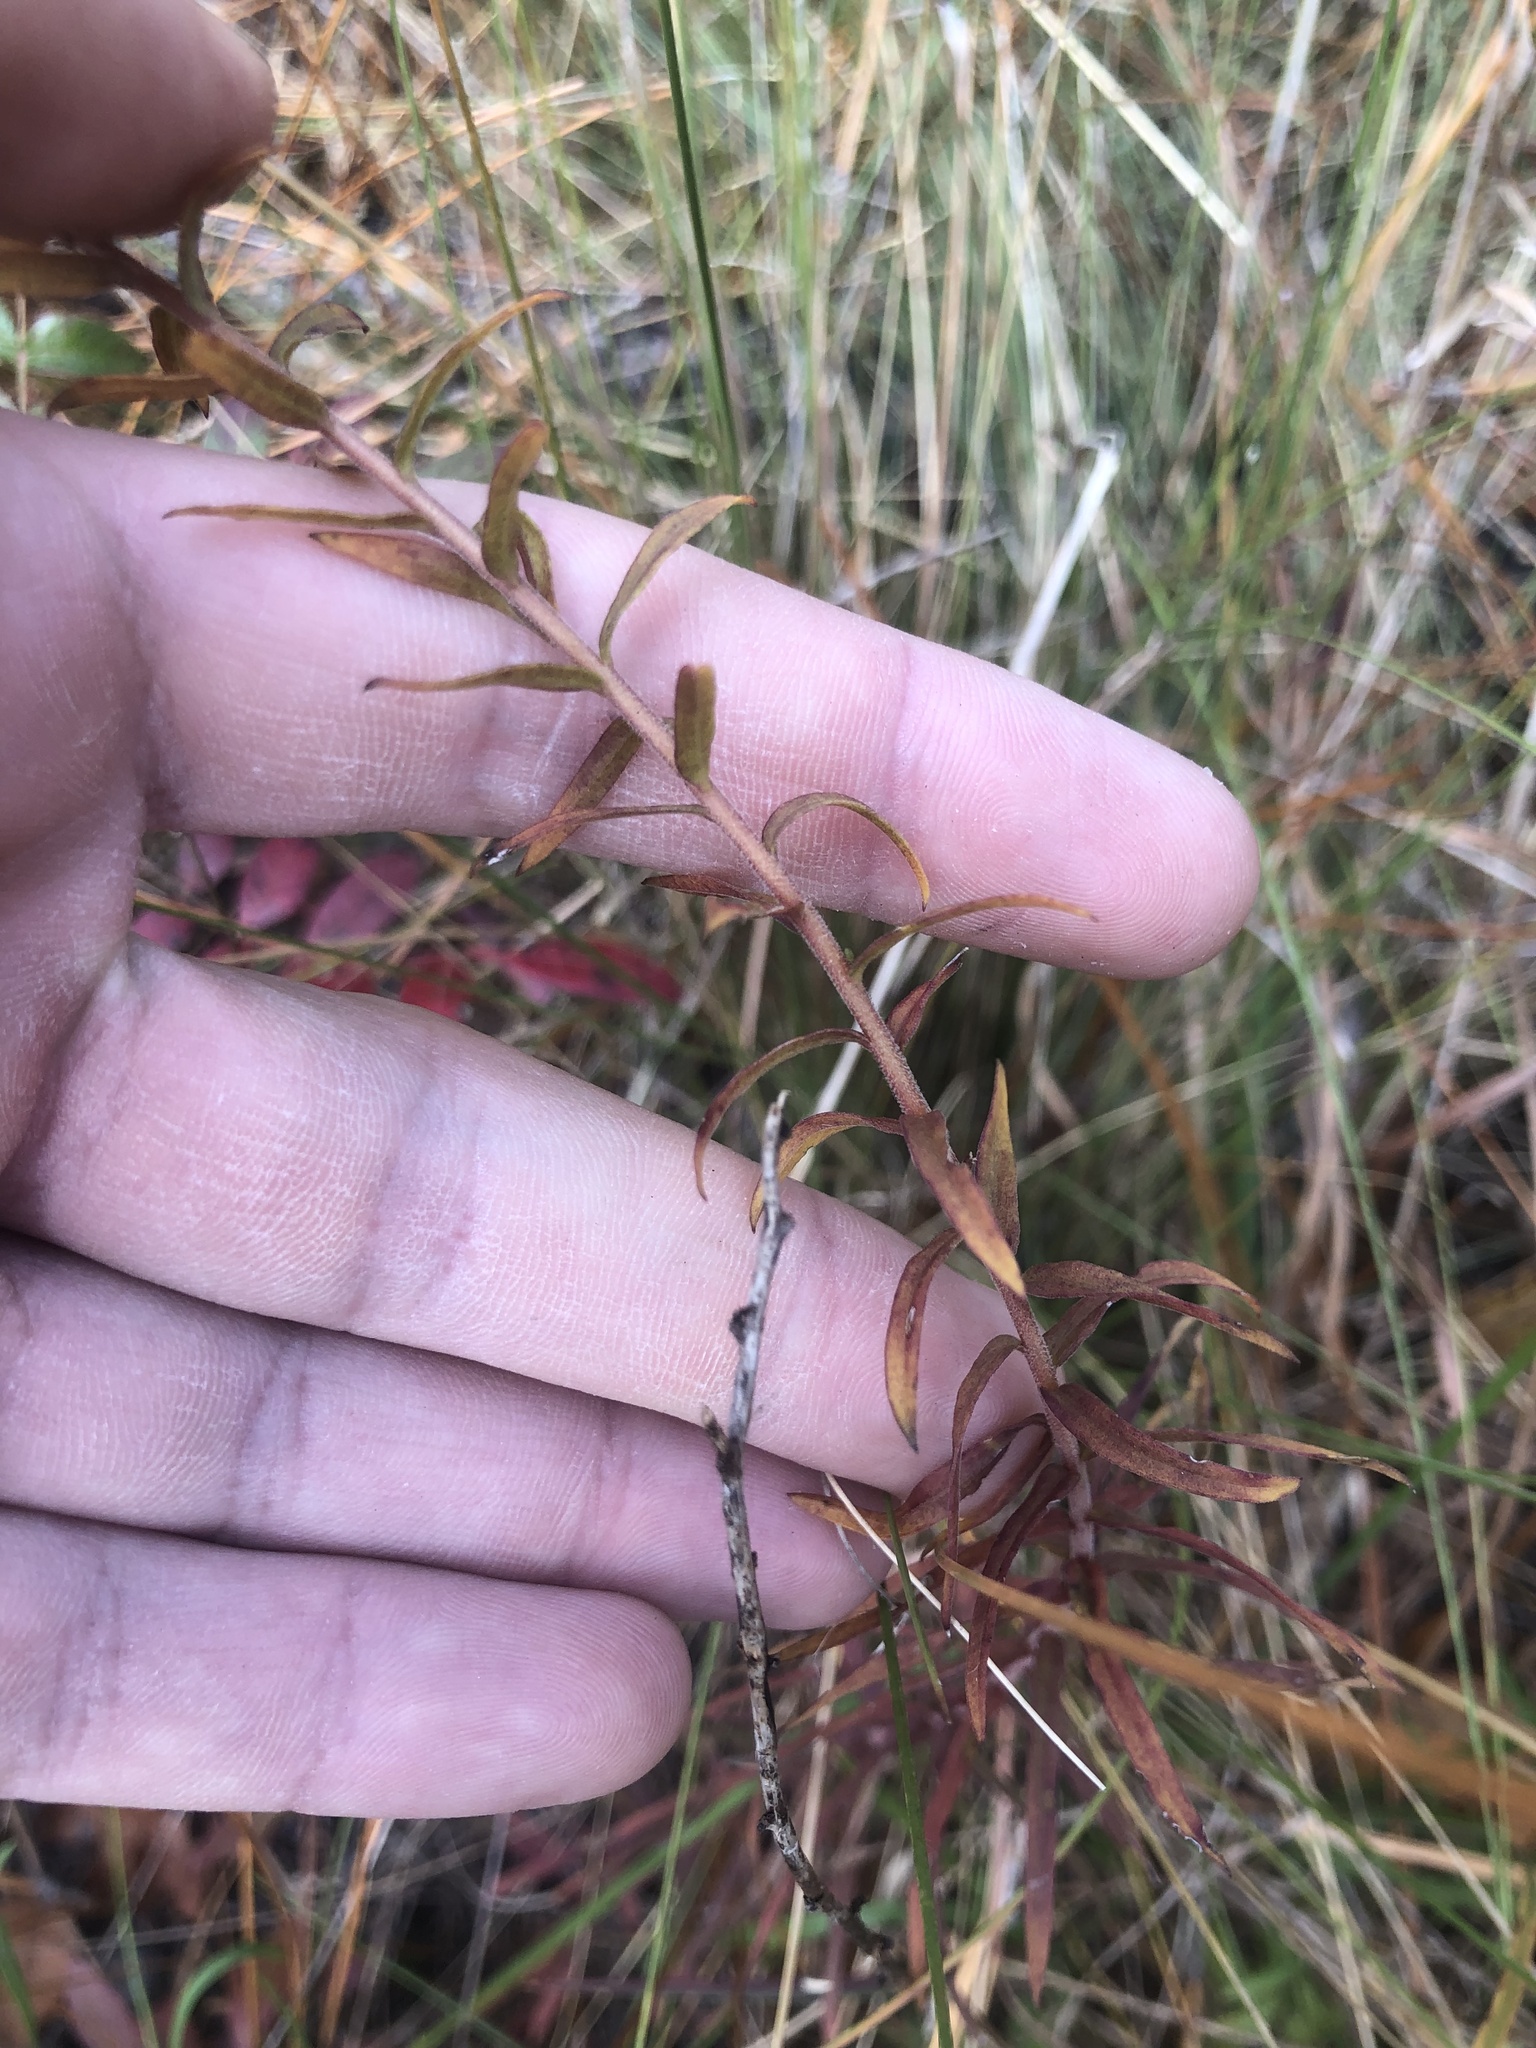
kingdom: Plantae
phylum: Tracheophyta
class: Magnoliopsida
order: Asterales
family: Asteraceae
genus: Solidago
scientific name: Solidago tortifolia
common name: Twisted-leaf goldenrod
